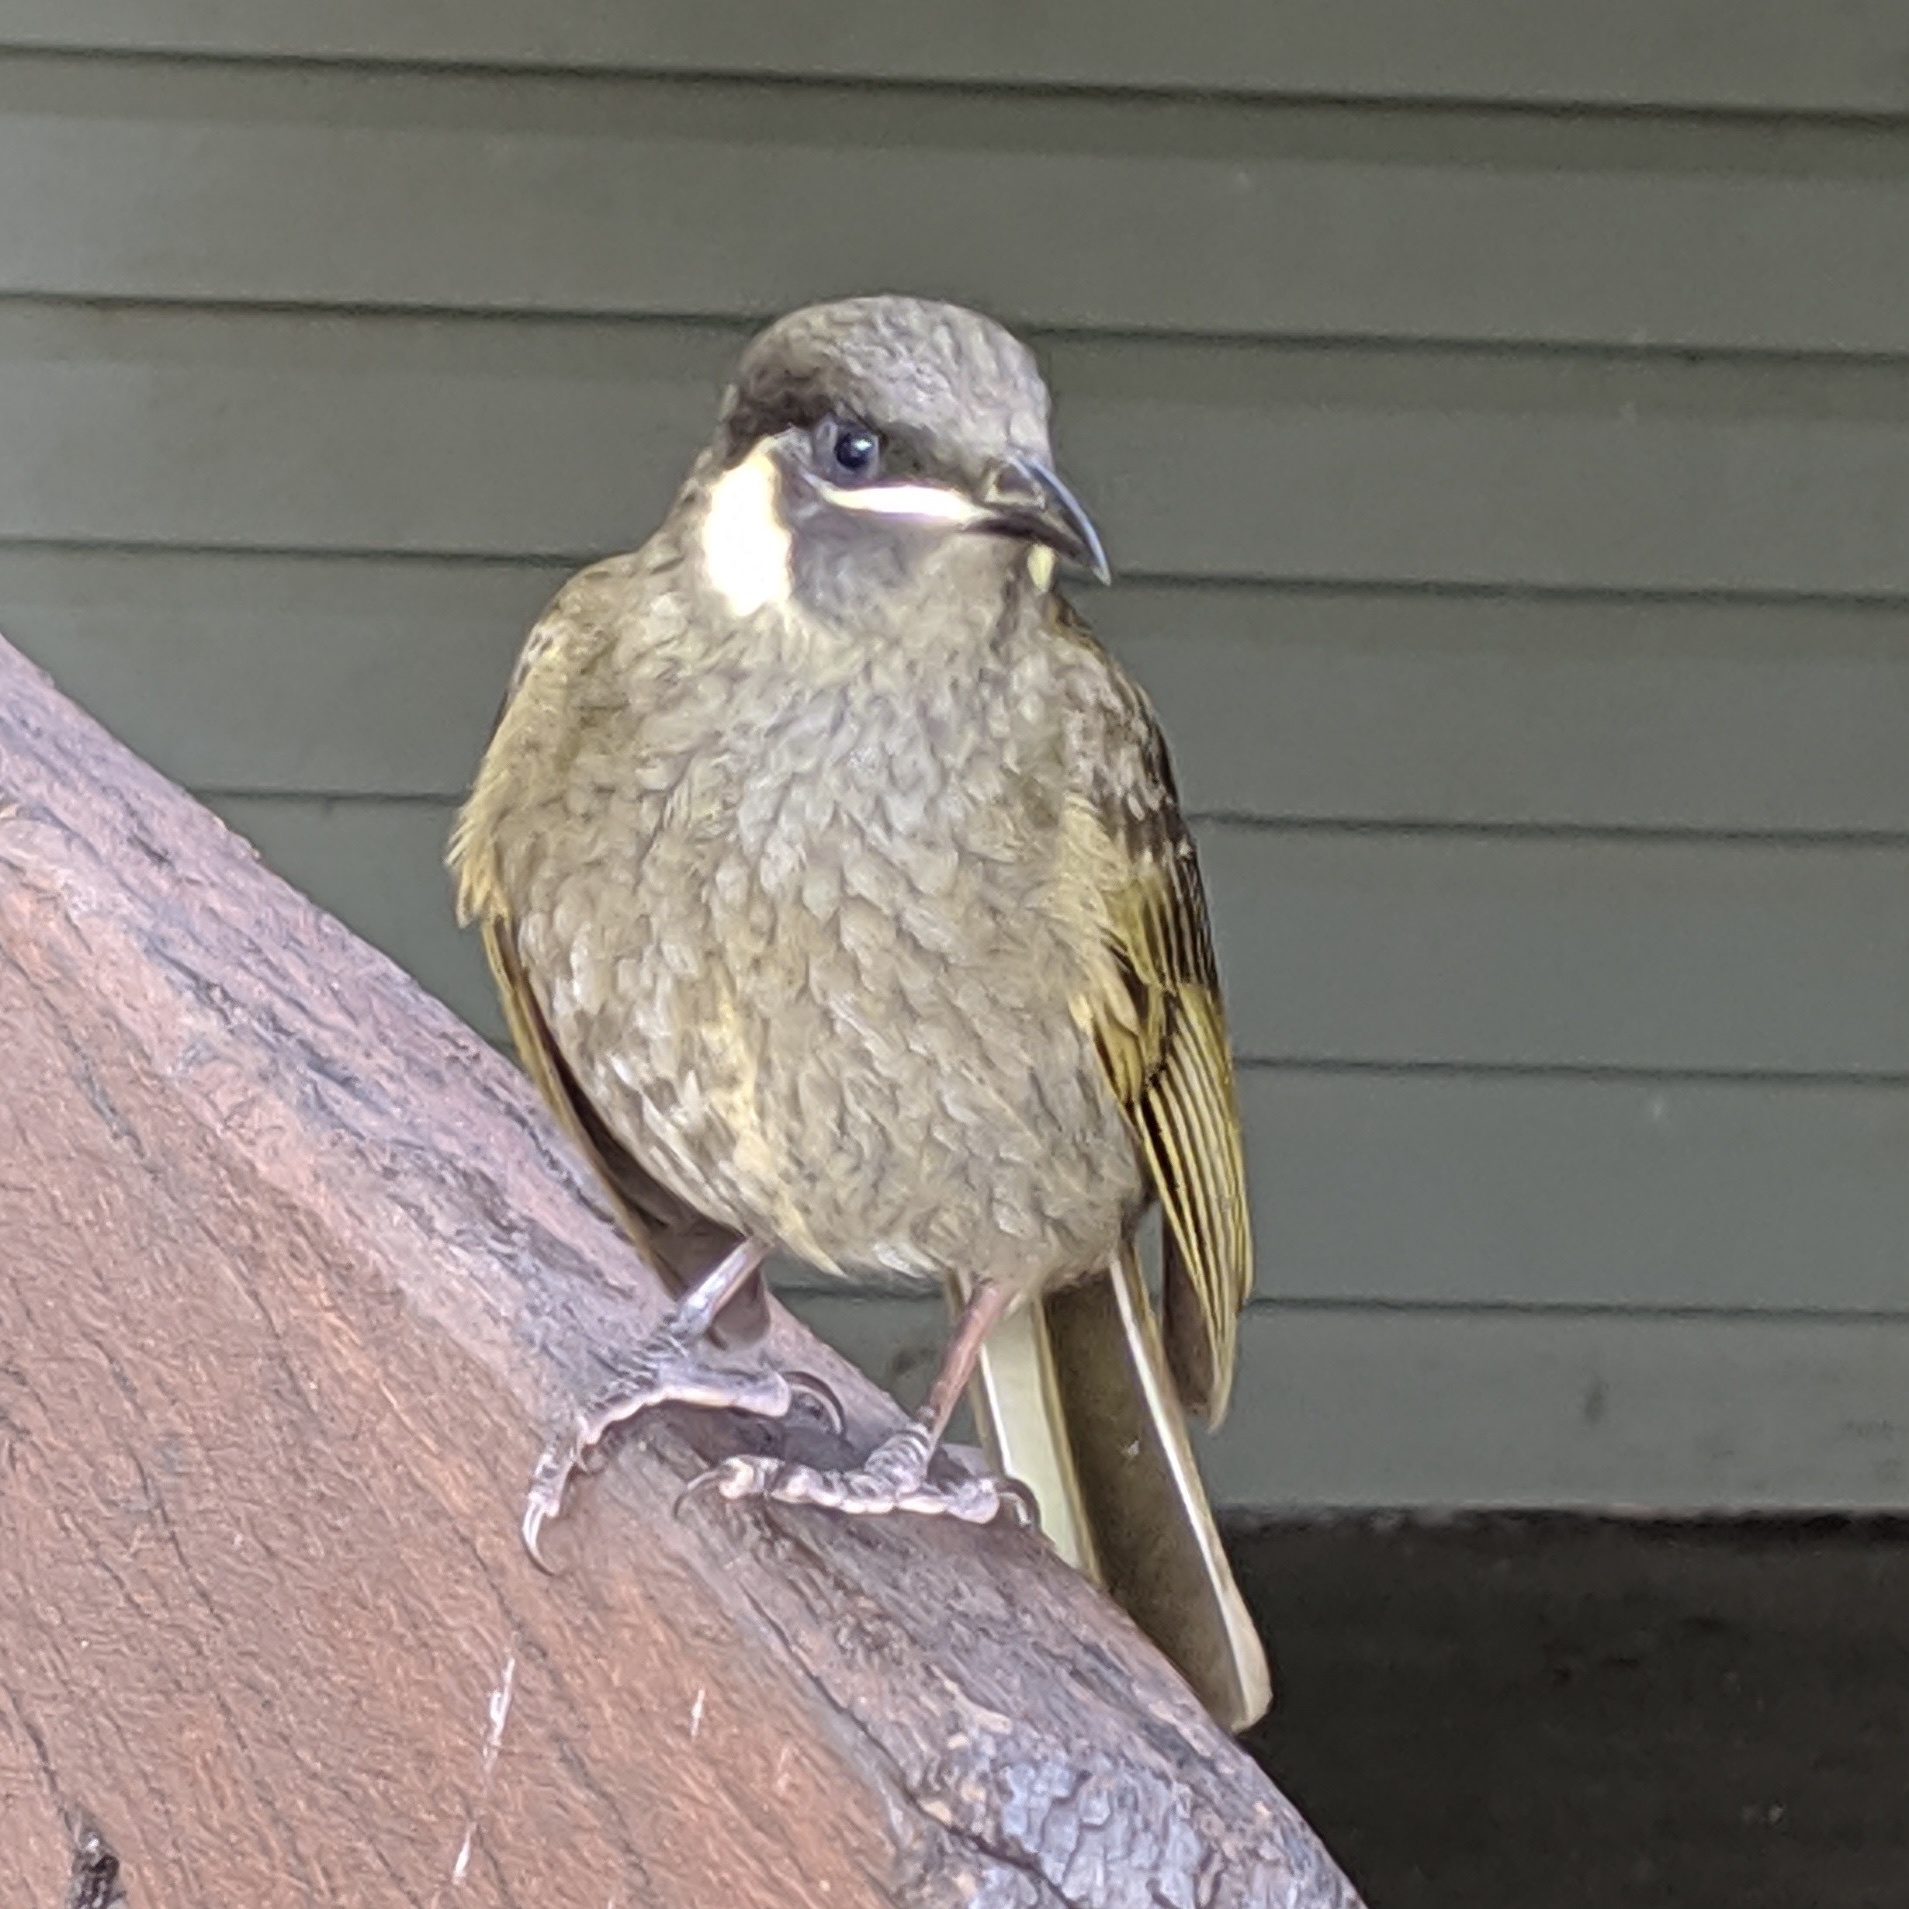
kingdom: Animalia
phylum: Chordata
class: Aves
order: Passeriformes
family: Meliphagidae
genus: Meliphaga
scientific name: Meliphaga lewinii
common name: Lewin's honeyeater
